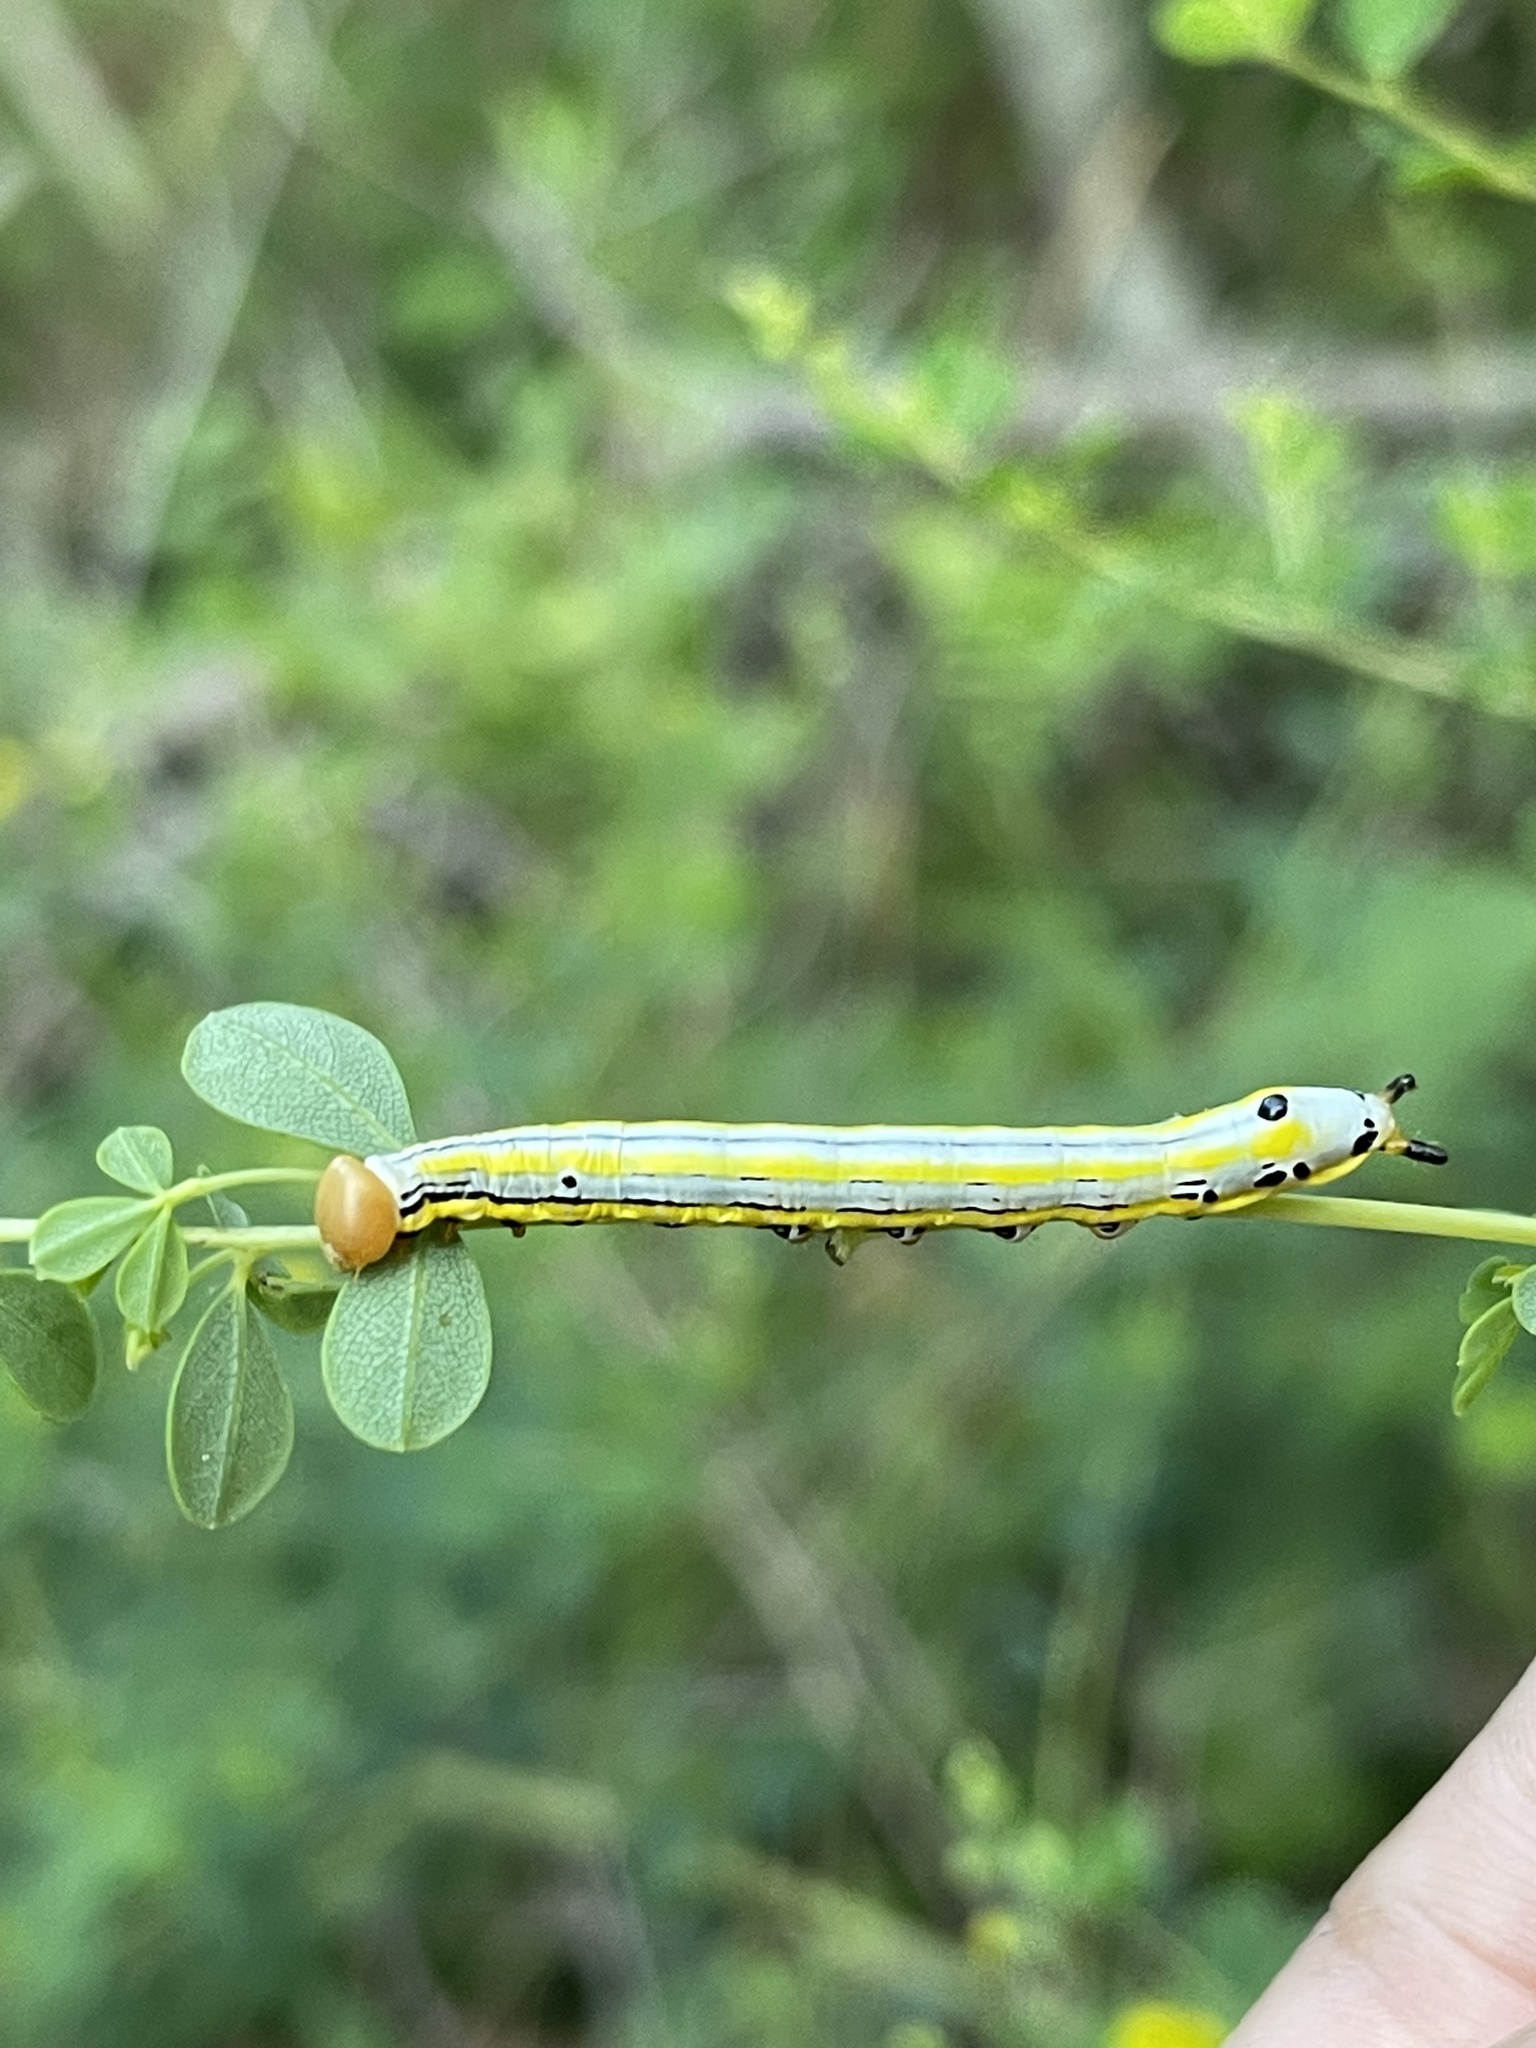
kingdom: Animalia
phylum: Arthropoda
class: Insecta
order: Lepidoptera
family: Notodontidae
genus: Dasylophia
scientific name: Dasylophia anguina
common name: Black-spotted prominent
